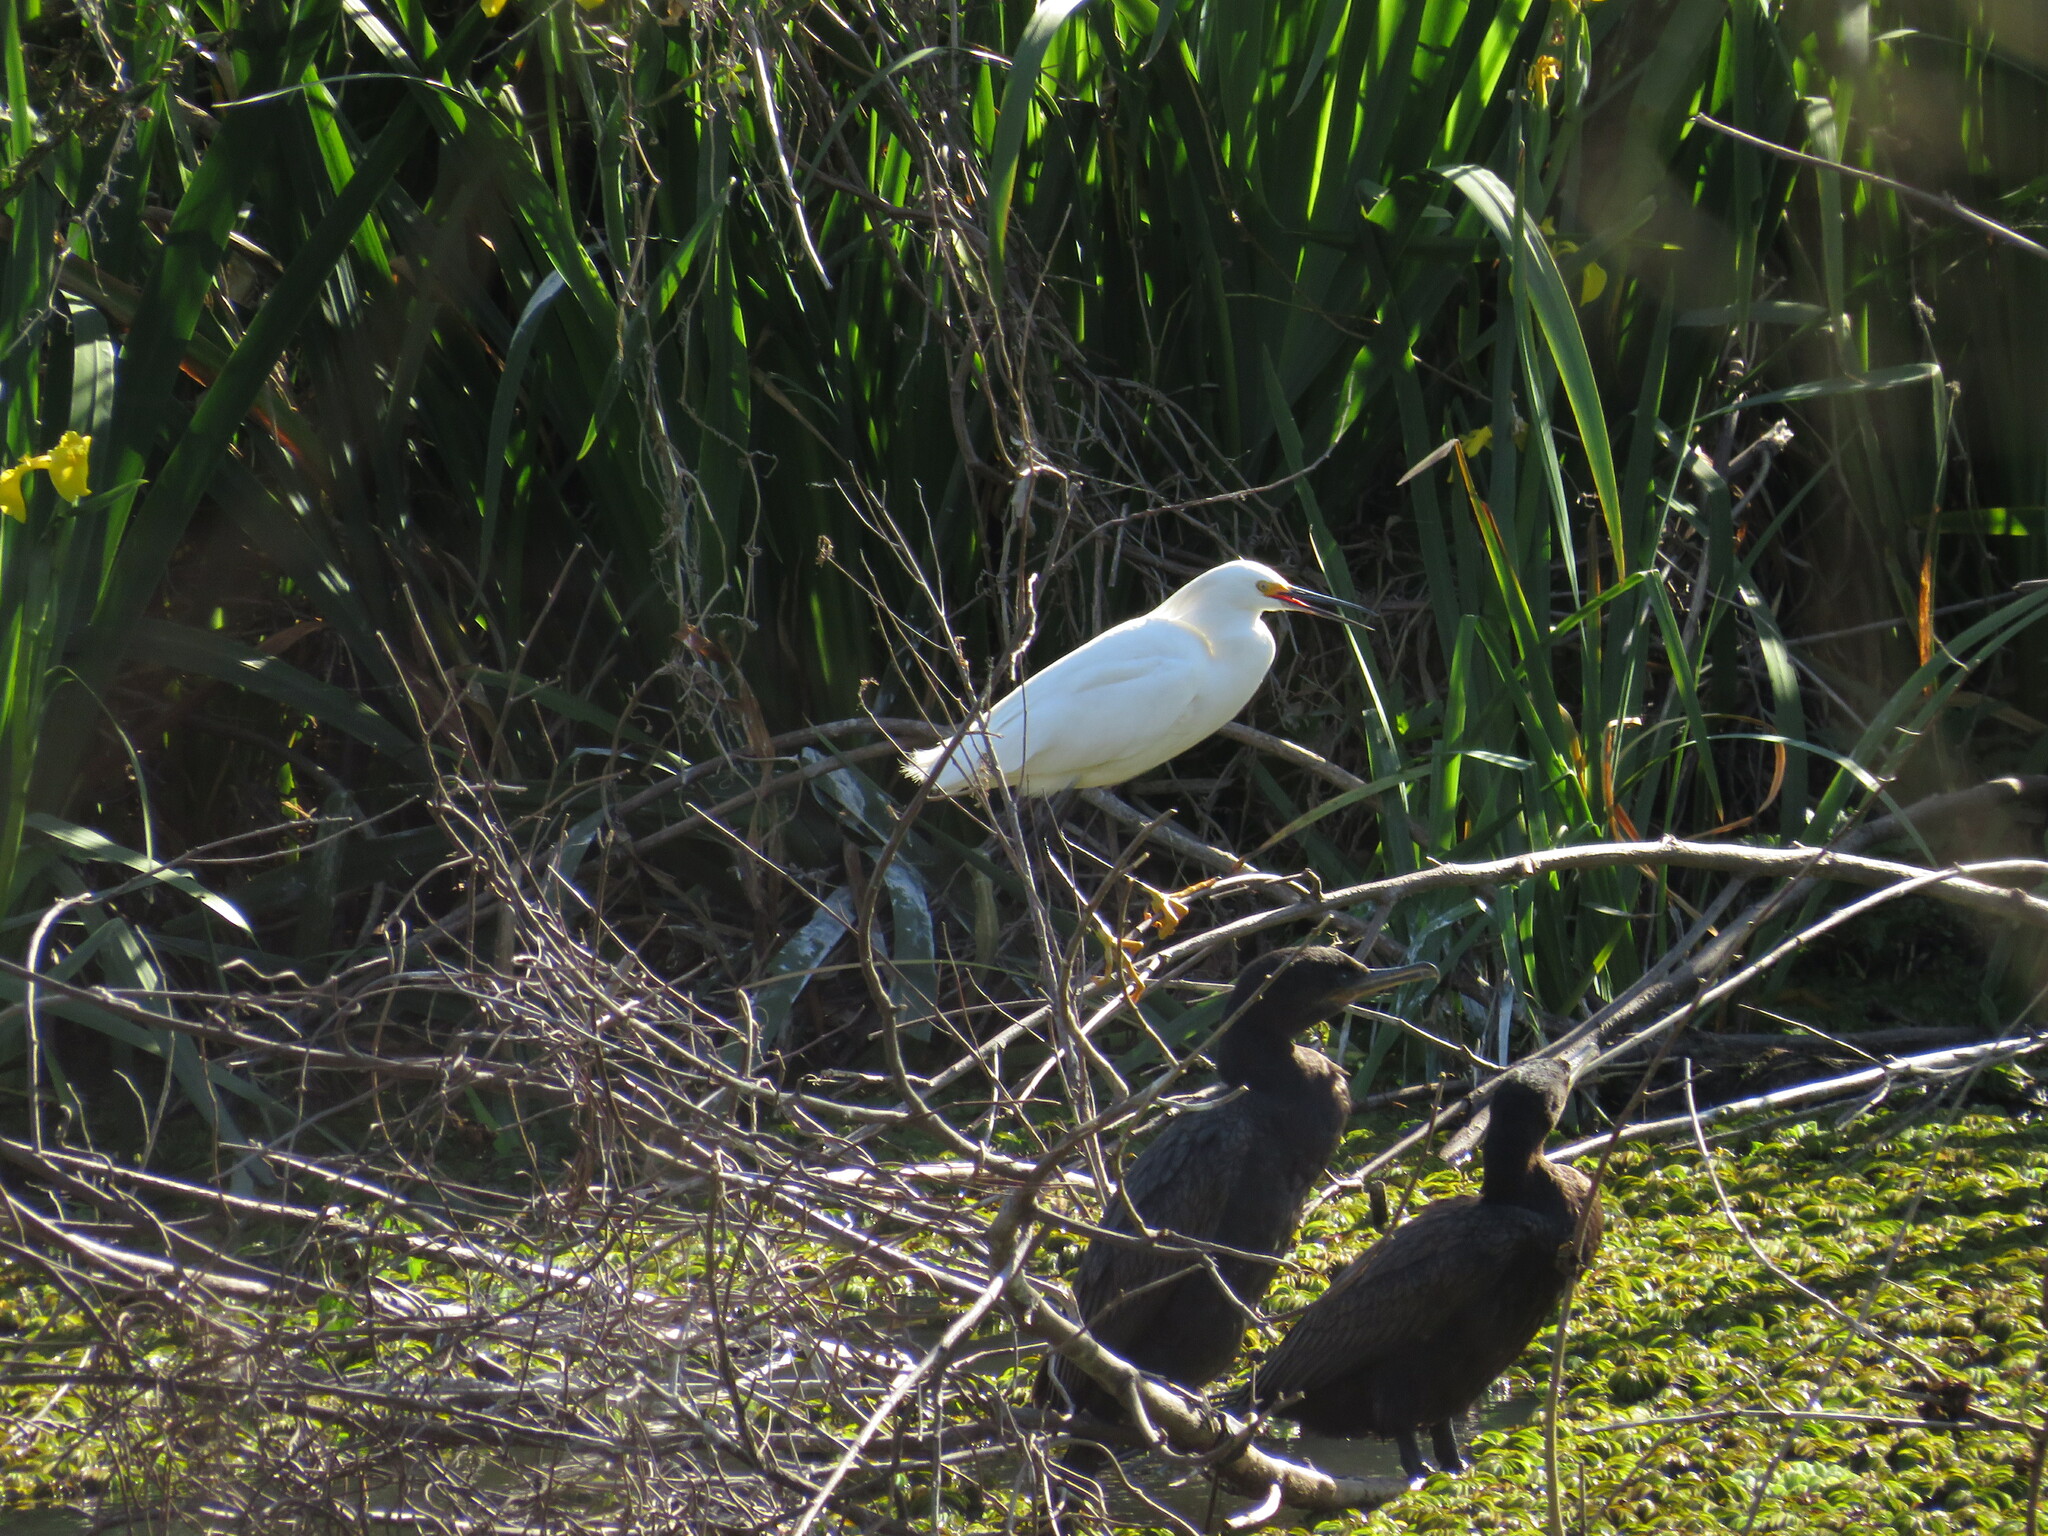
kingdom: Animalia
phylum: Chordata
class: Aves
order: Pelecaniformes
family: Ardeidae
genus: Egretta
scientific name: Egretta thula
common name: Snowy egret
